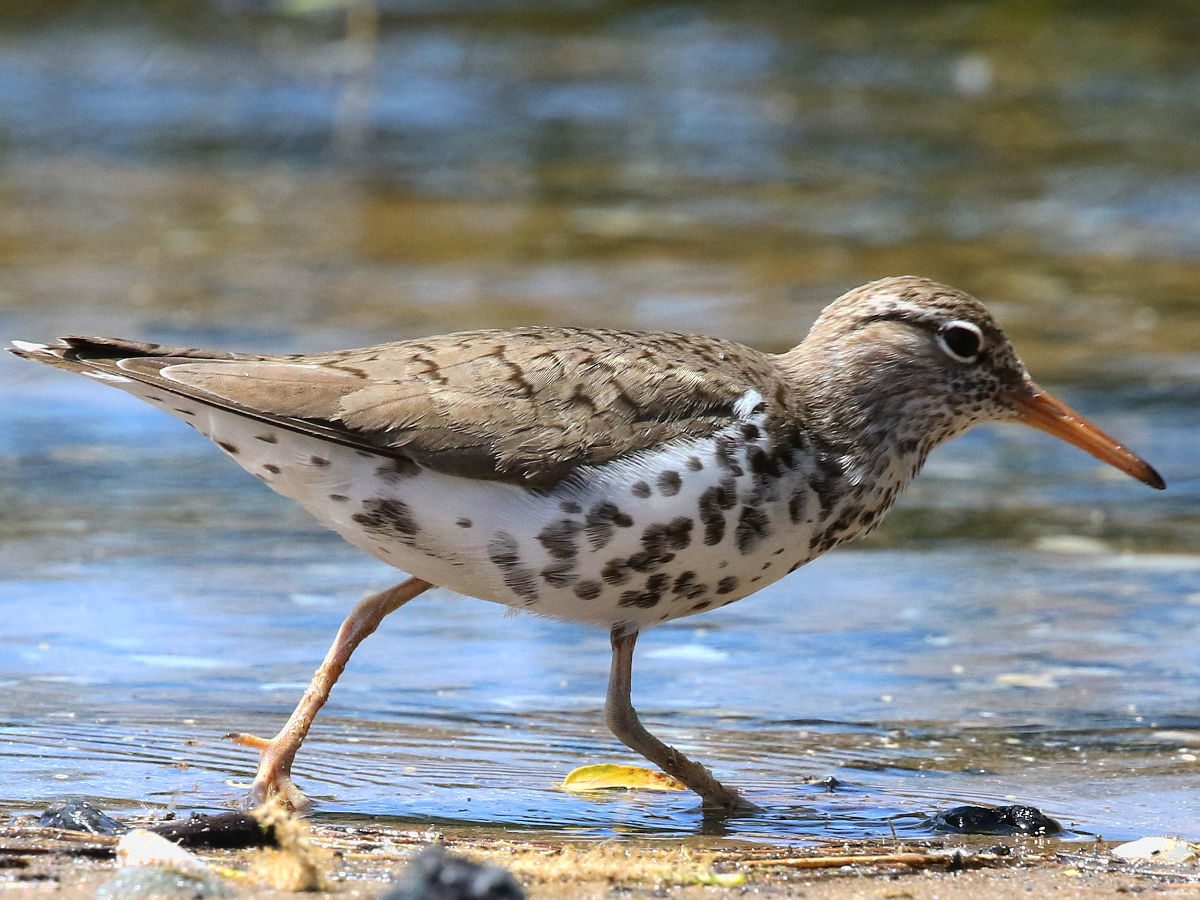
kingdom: Animalia
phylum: Chordata
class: Aves
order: Charadriiformes
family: Scolopacidae
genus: Actitis
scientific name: Actitis macularius
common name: Spotted sandpiper
